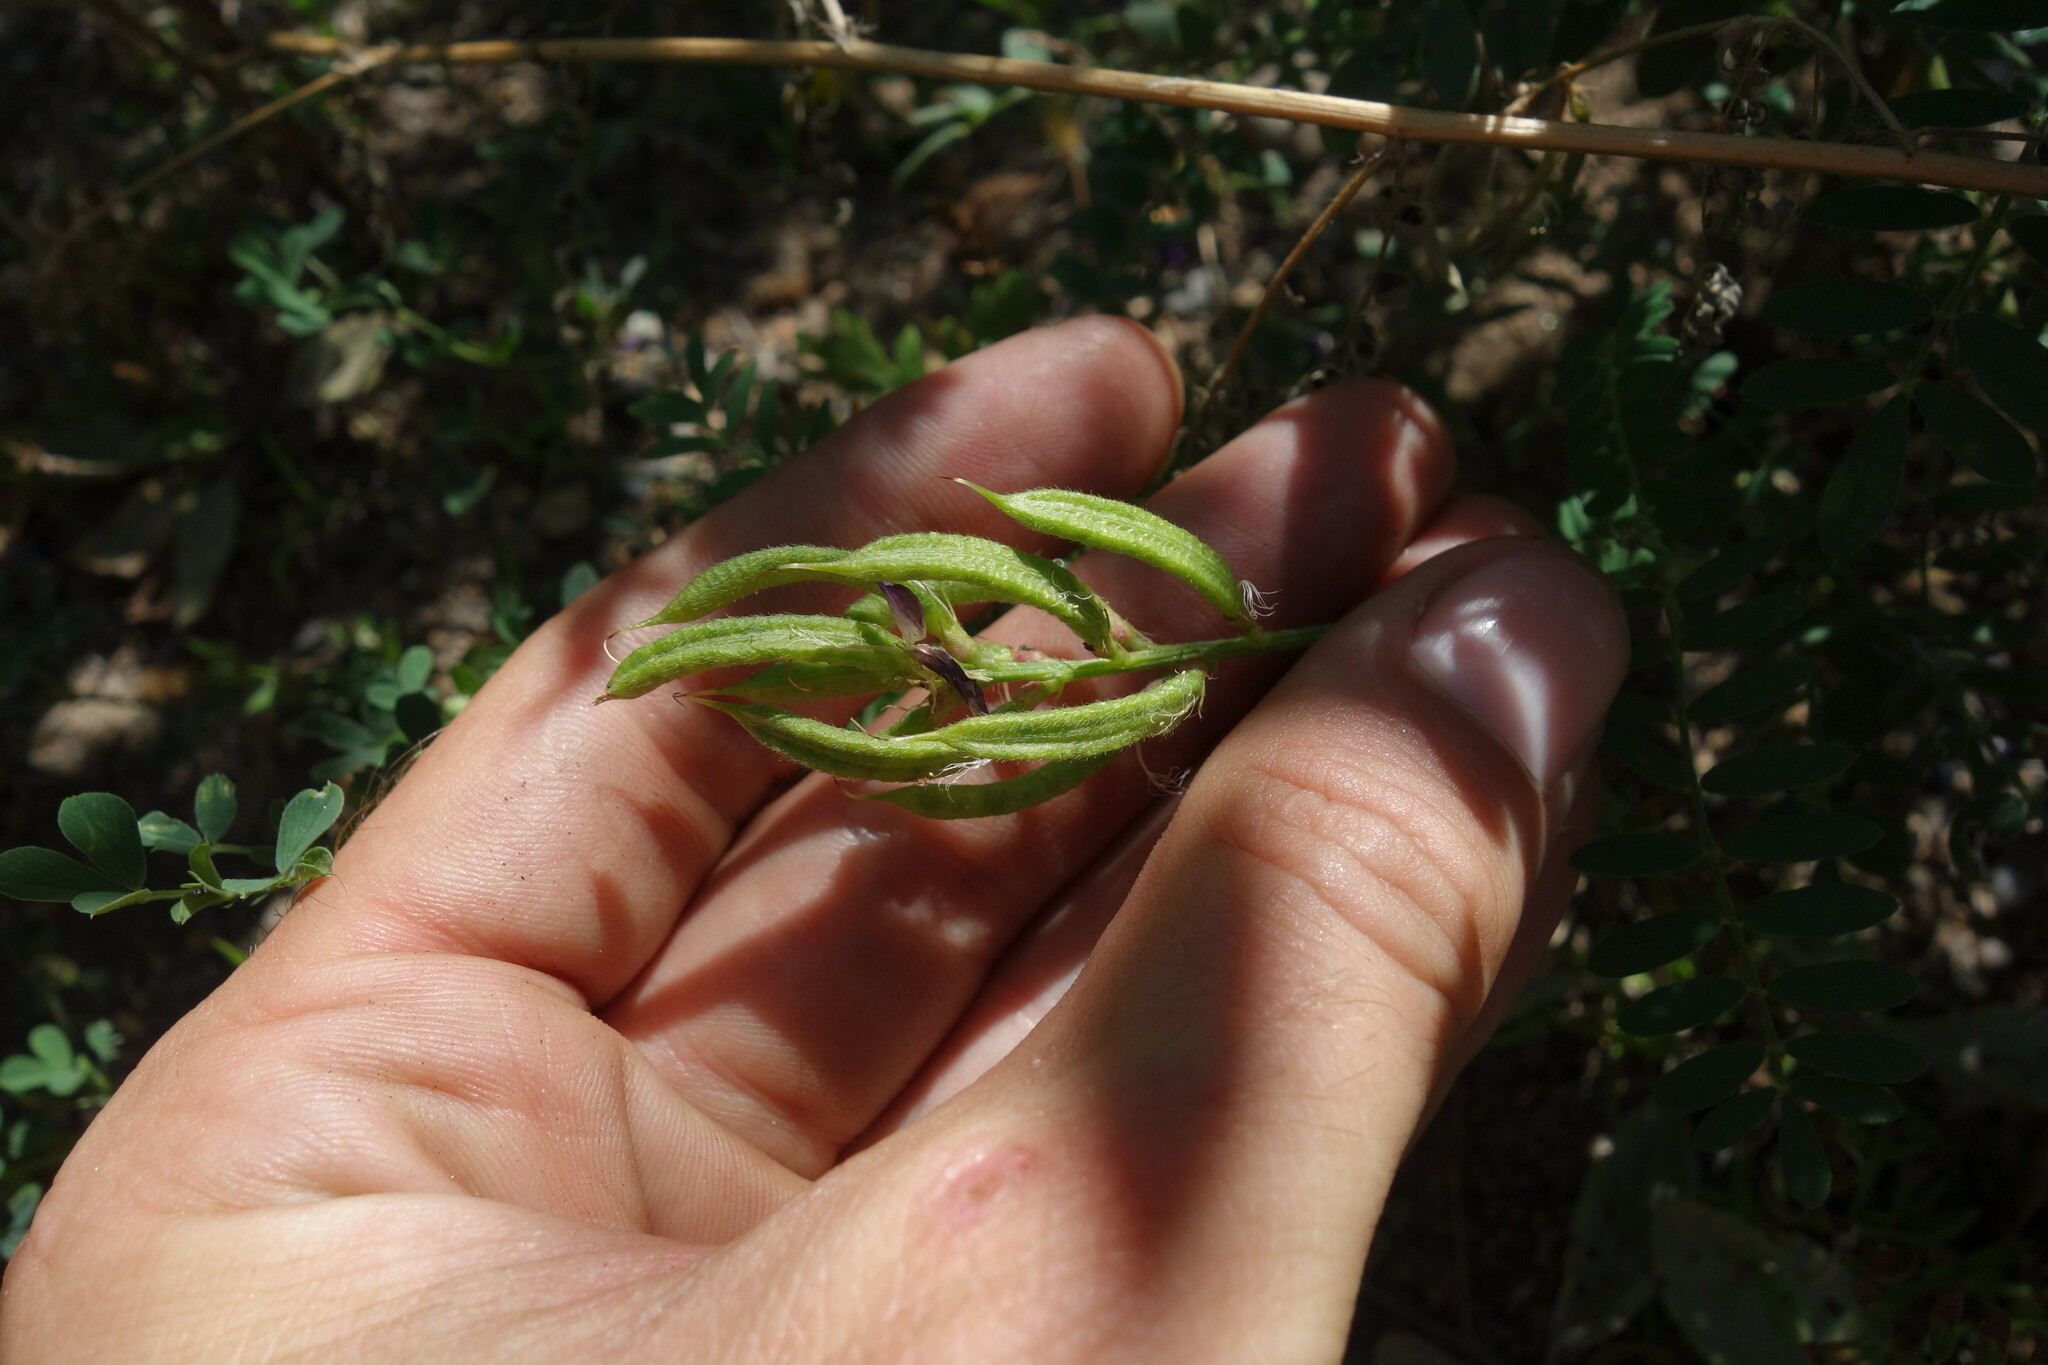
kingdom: Plantae
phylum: Tracheophyta
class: Magnoliopsida
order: Fabales
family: Fabaceae
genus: Astragalus
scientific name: Astragalus davuricus
